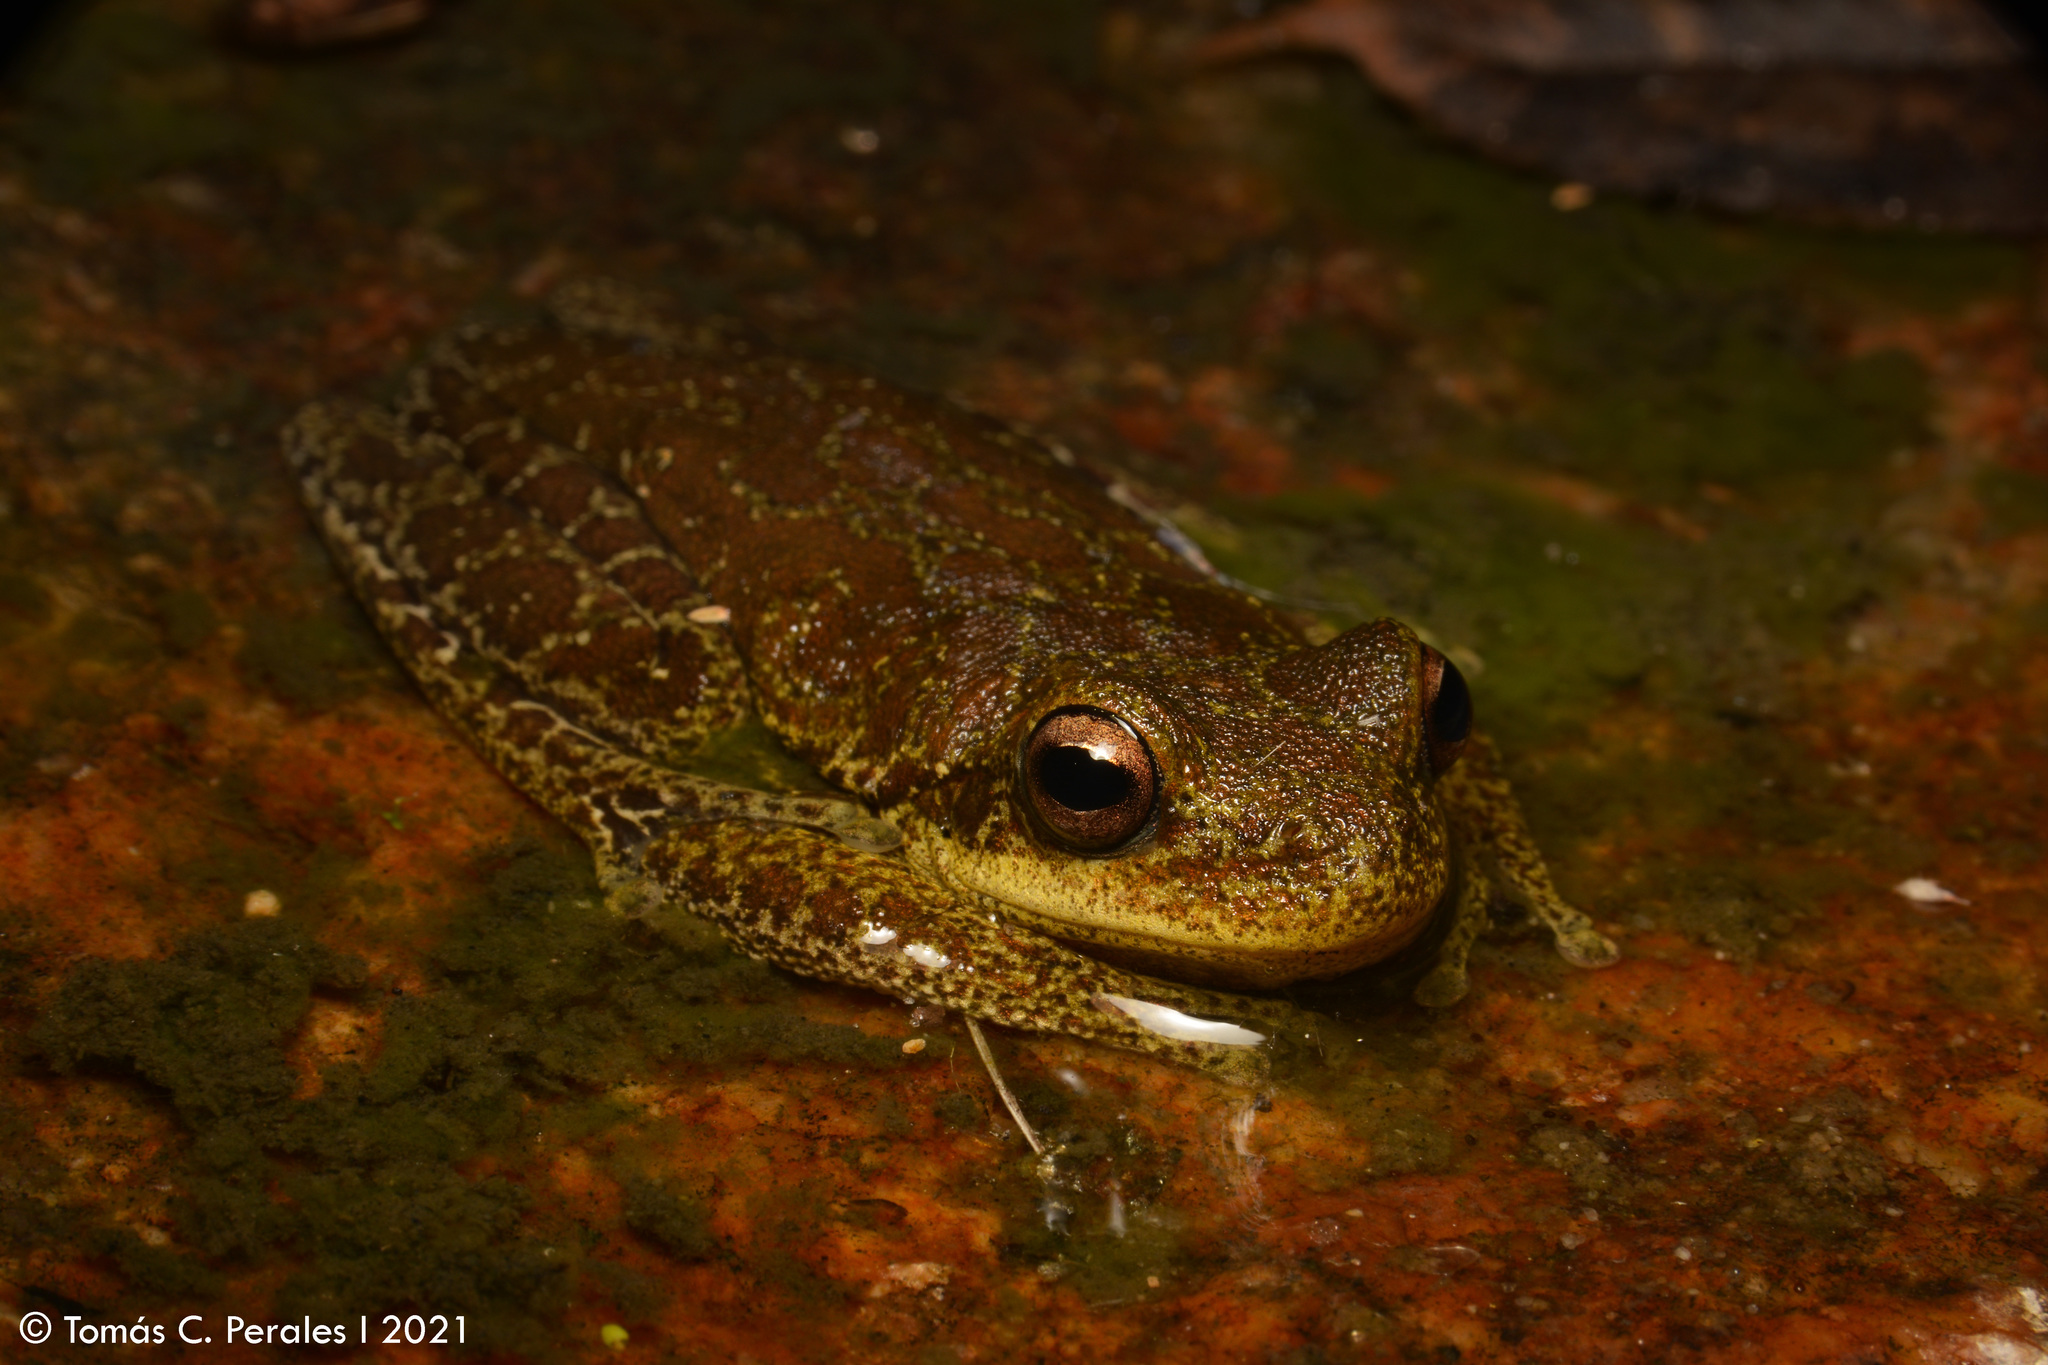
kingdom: Animalia
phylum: Chordata
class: Amphibia
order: Anura
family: Hylidae
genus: Boana
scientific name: Boana cordobae
